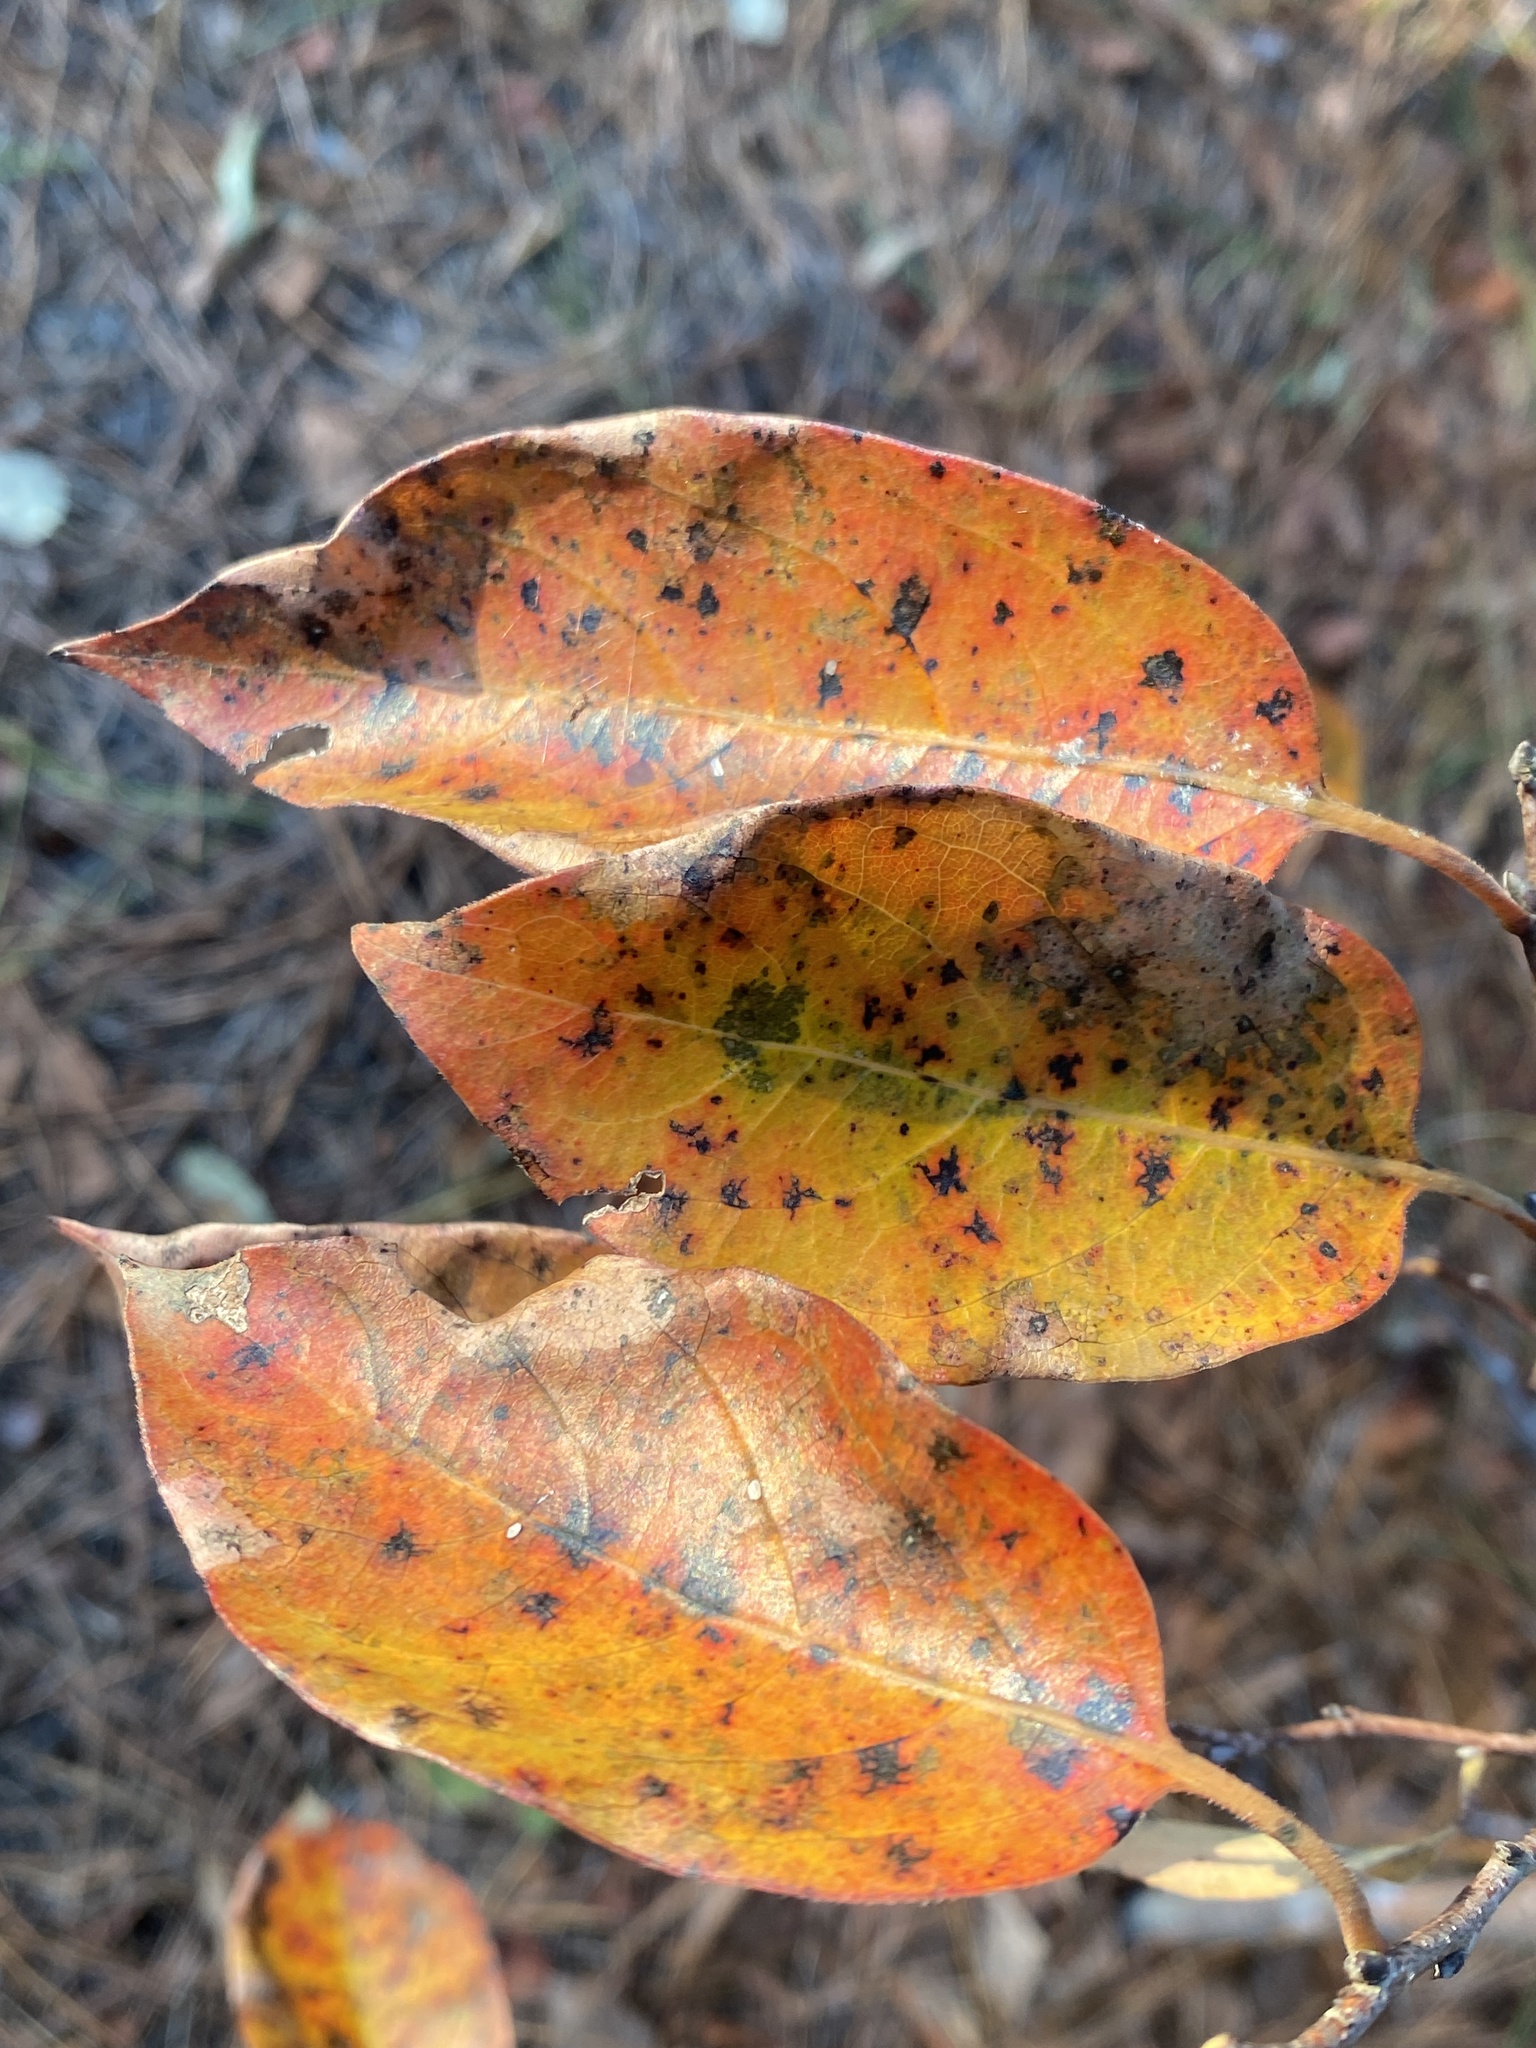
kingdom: Plantae
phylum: Tracheophyta
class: Magnoliopsida
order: Ericales
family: Ebenaceae
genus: Diospyros
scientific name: Diospyros virginiana
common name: Persimmon
